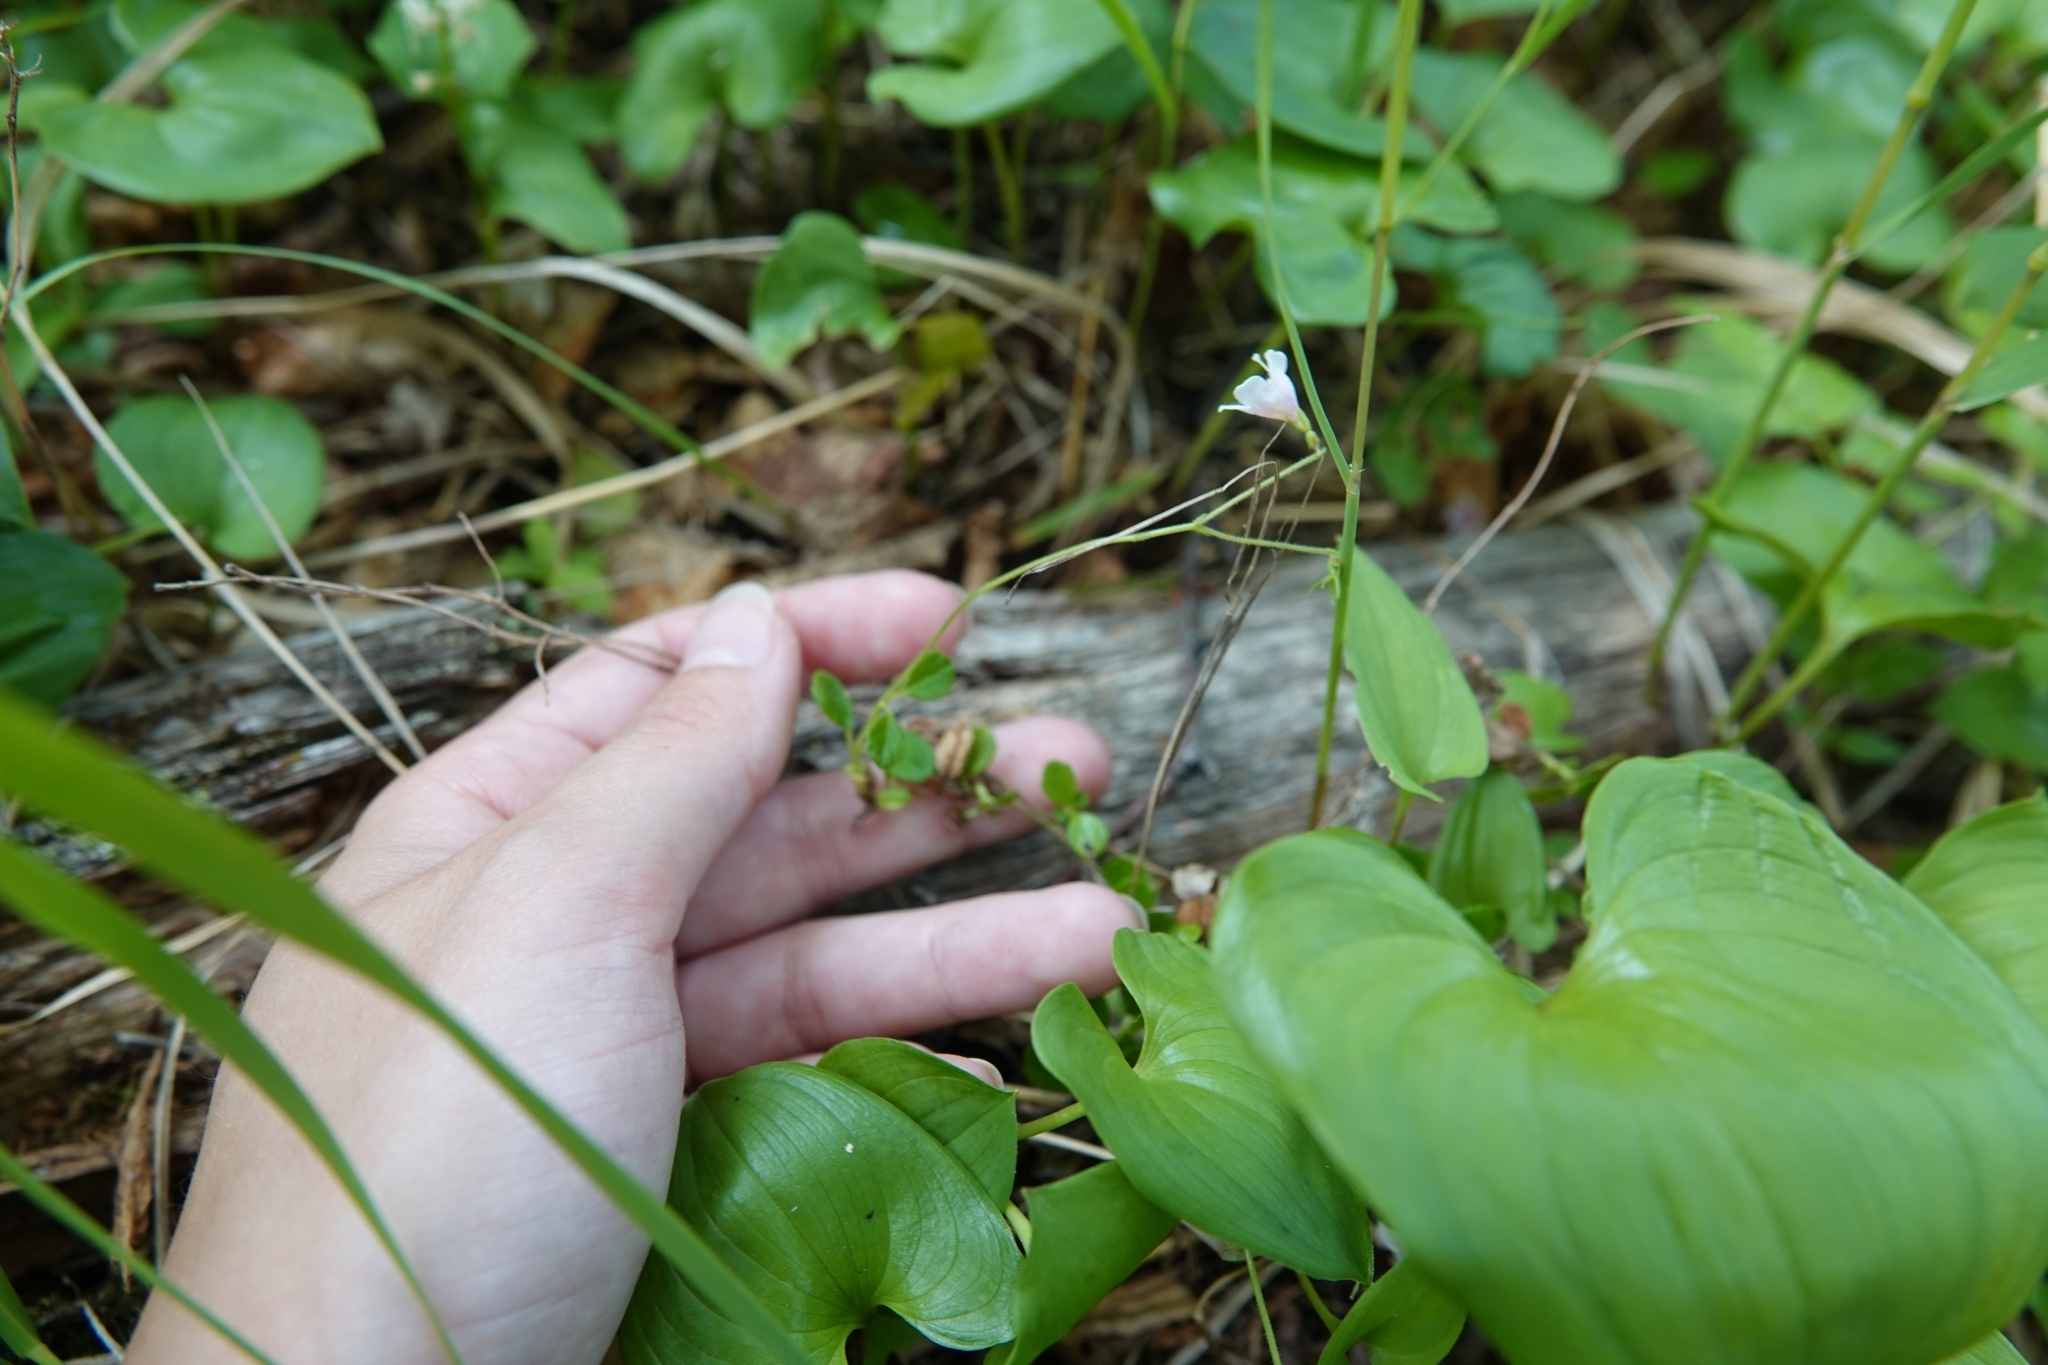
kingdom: Plantae
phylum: Tracheophyta
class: Magnoliopsida
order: Dipsacales
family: Caprifoliaceae
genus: Linnaea
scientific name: Linnaea borealis
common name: Twinflower
